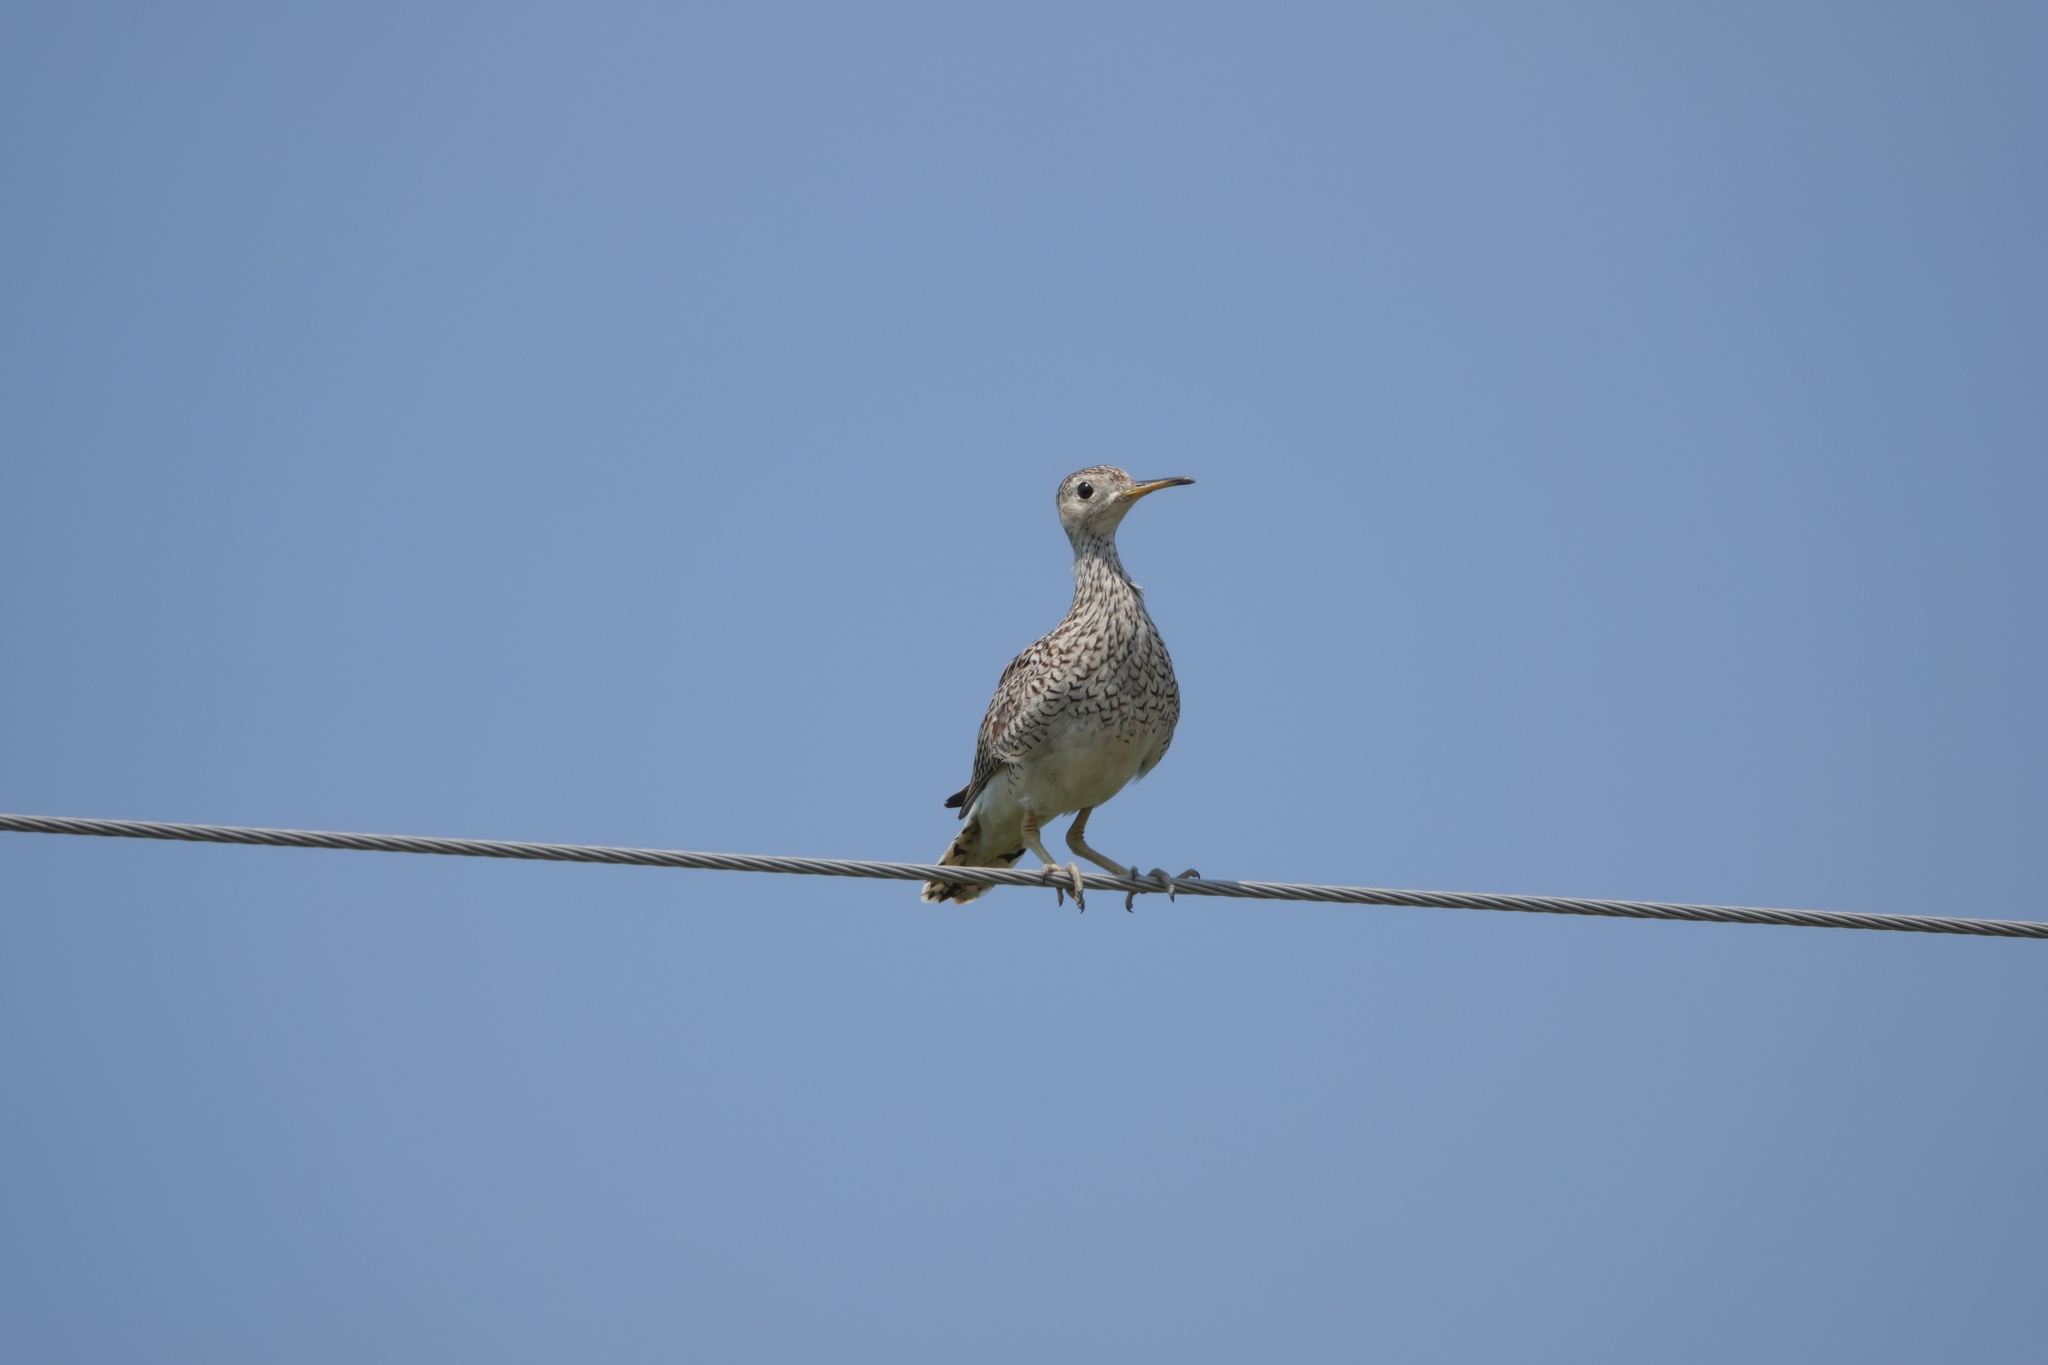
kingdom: Animalia
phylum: Chordata
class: Aves
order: Charadriiformes
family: Scolopacidae
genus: Bartramia
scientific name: Bartramia longicauda
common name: Upland sandpiper
